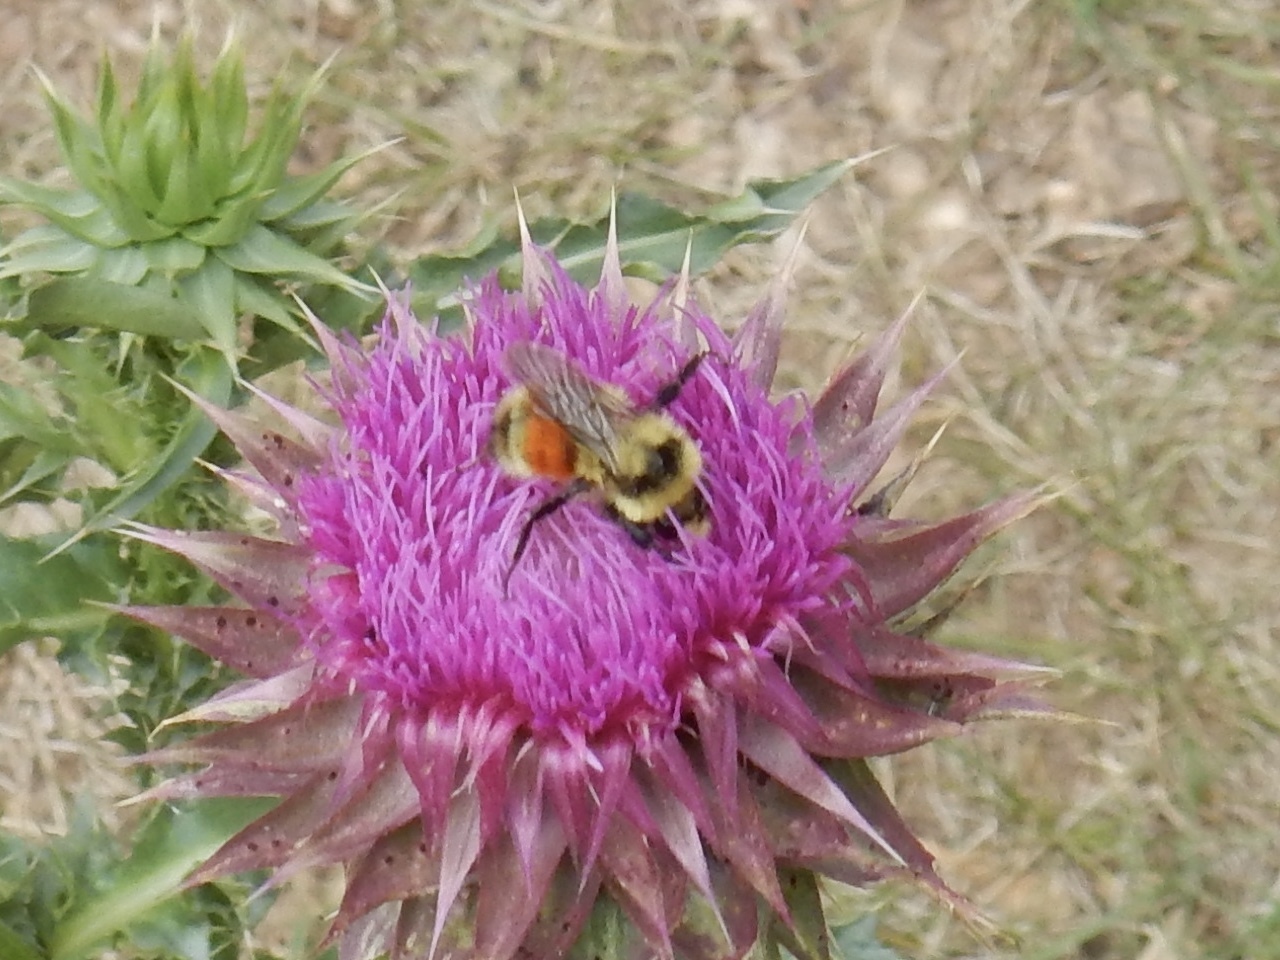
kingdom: Animalia
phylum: Arthropoda
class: Insecta
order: Hymenoptera
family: Apidae
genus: Bombus
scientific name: Bombus huntii
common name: Hunt bumble bee
